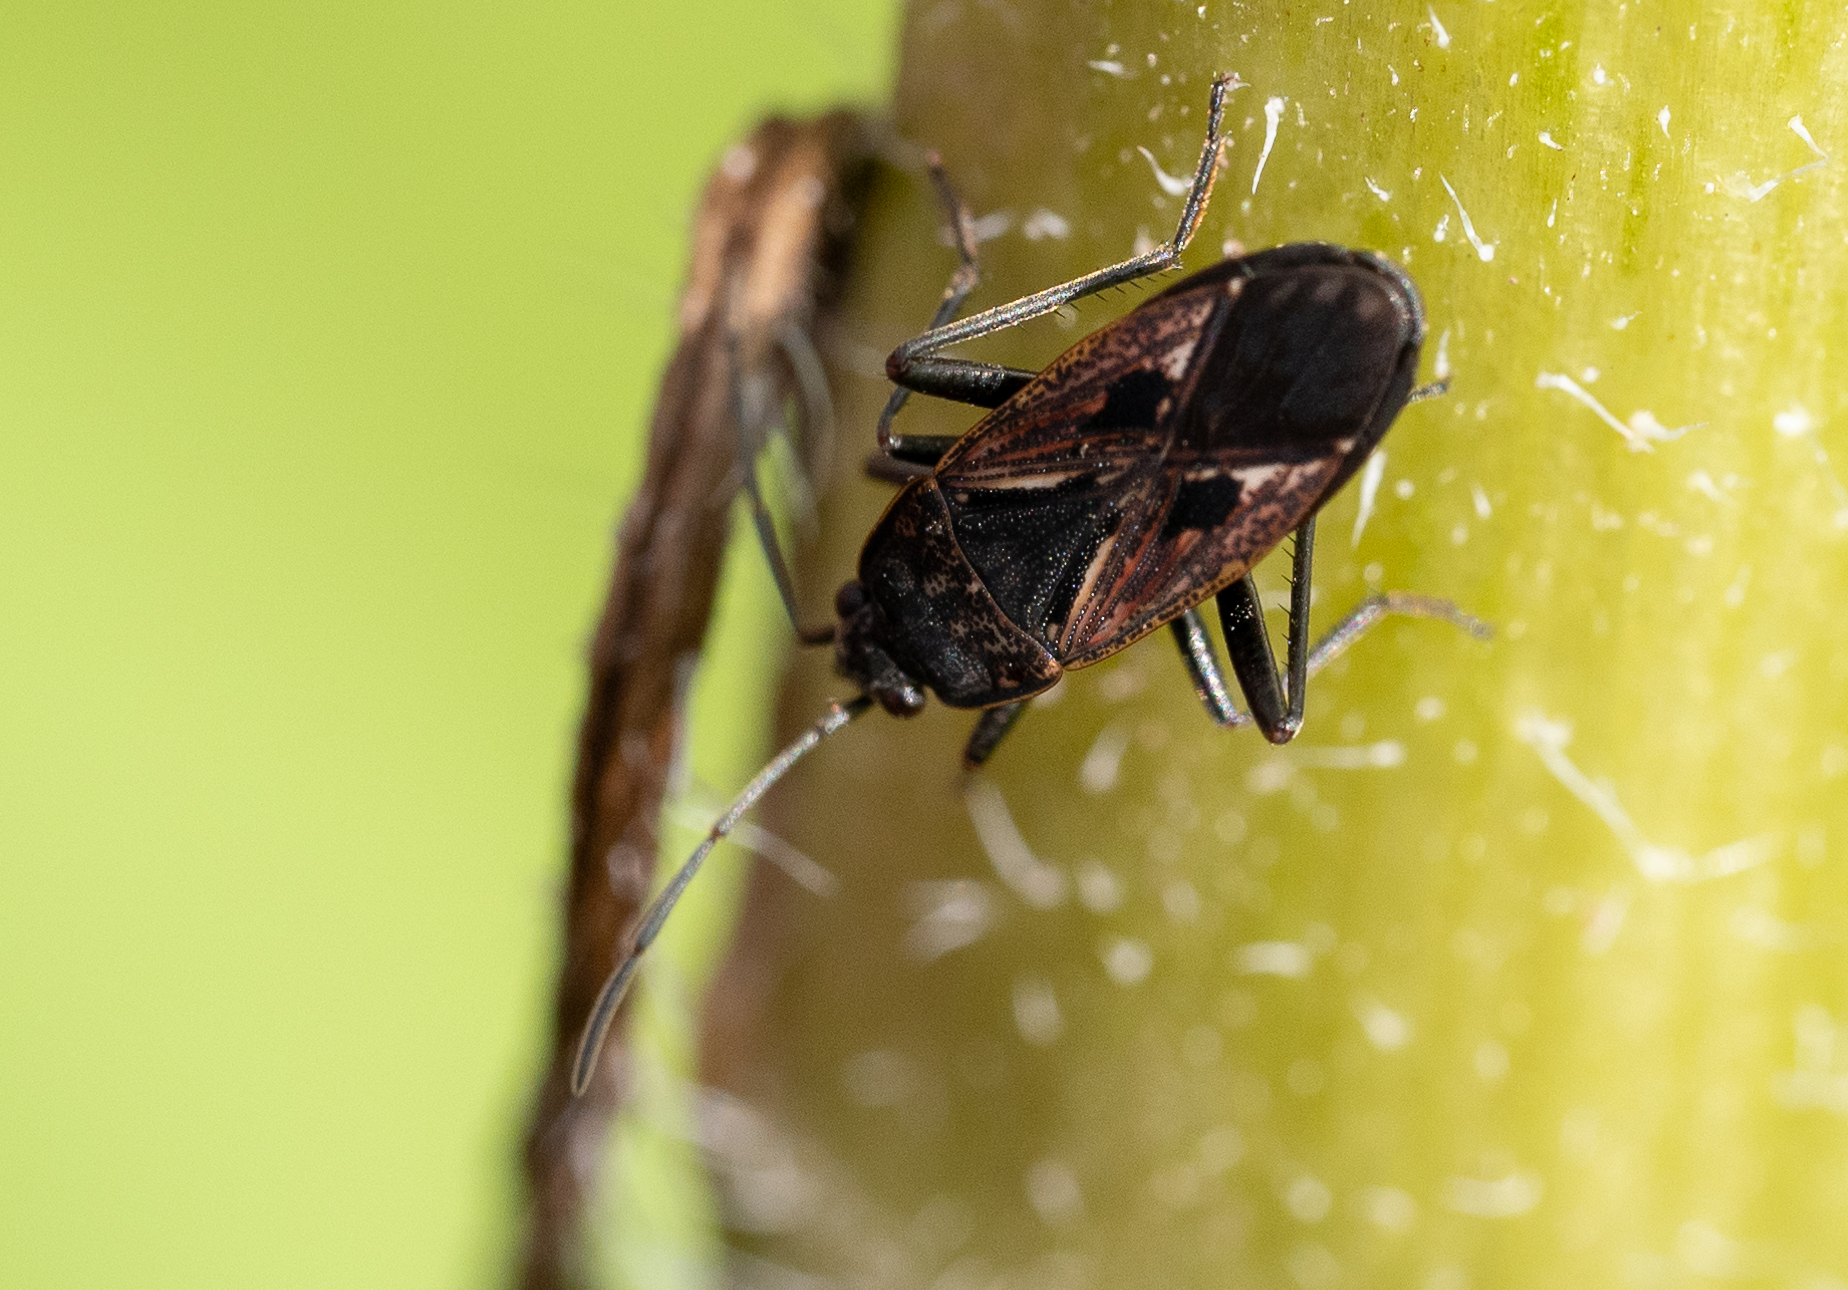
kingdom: Animalia
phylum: Arthropoda
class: Insecta
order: Hemiptera
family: Rhyparochromidae
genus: Rhyparochromus
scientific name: Rhyparochromus pini
